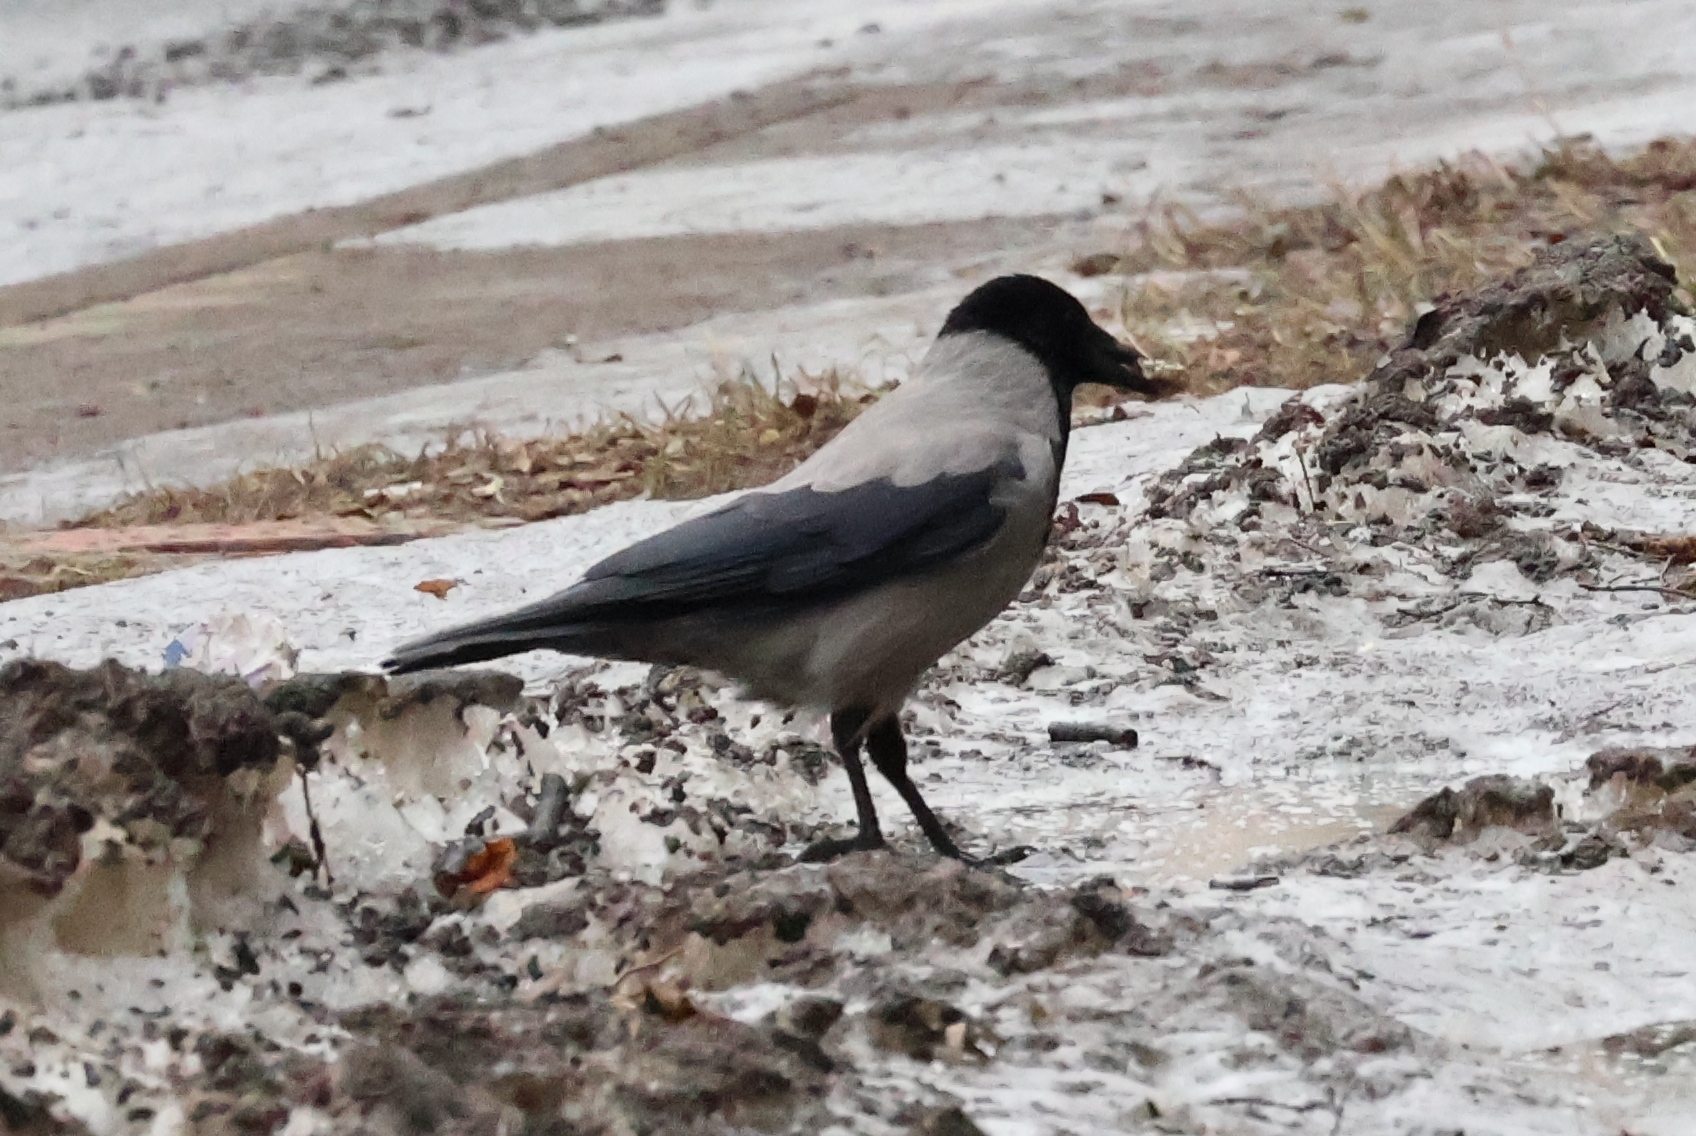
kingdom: Animalia
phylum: Chordata
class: Aves
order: Passeriformes
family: Corvidae
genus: Corvus
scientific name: Corvus cornix
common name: Hooded crow
